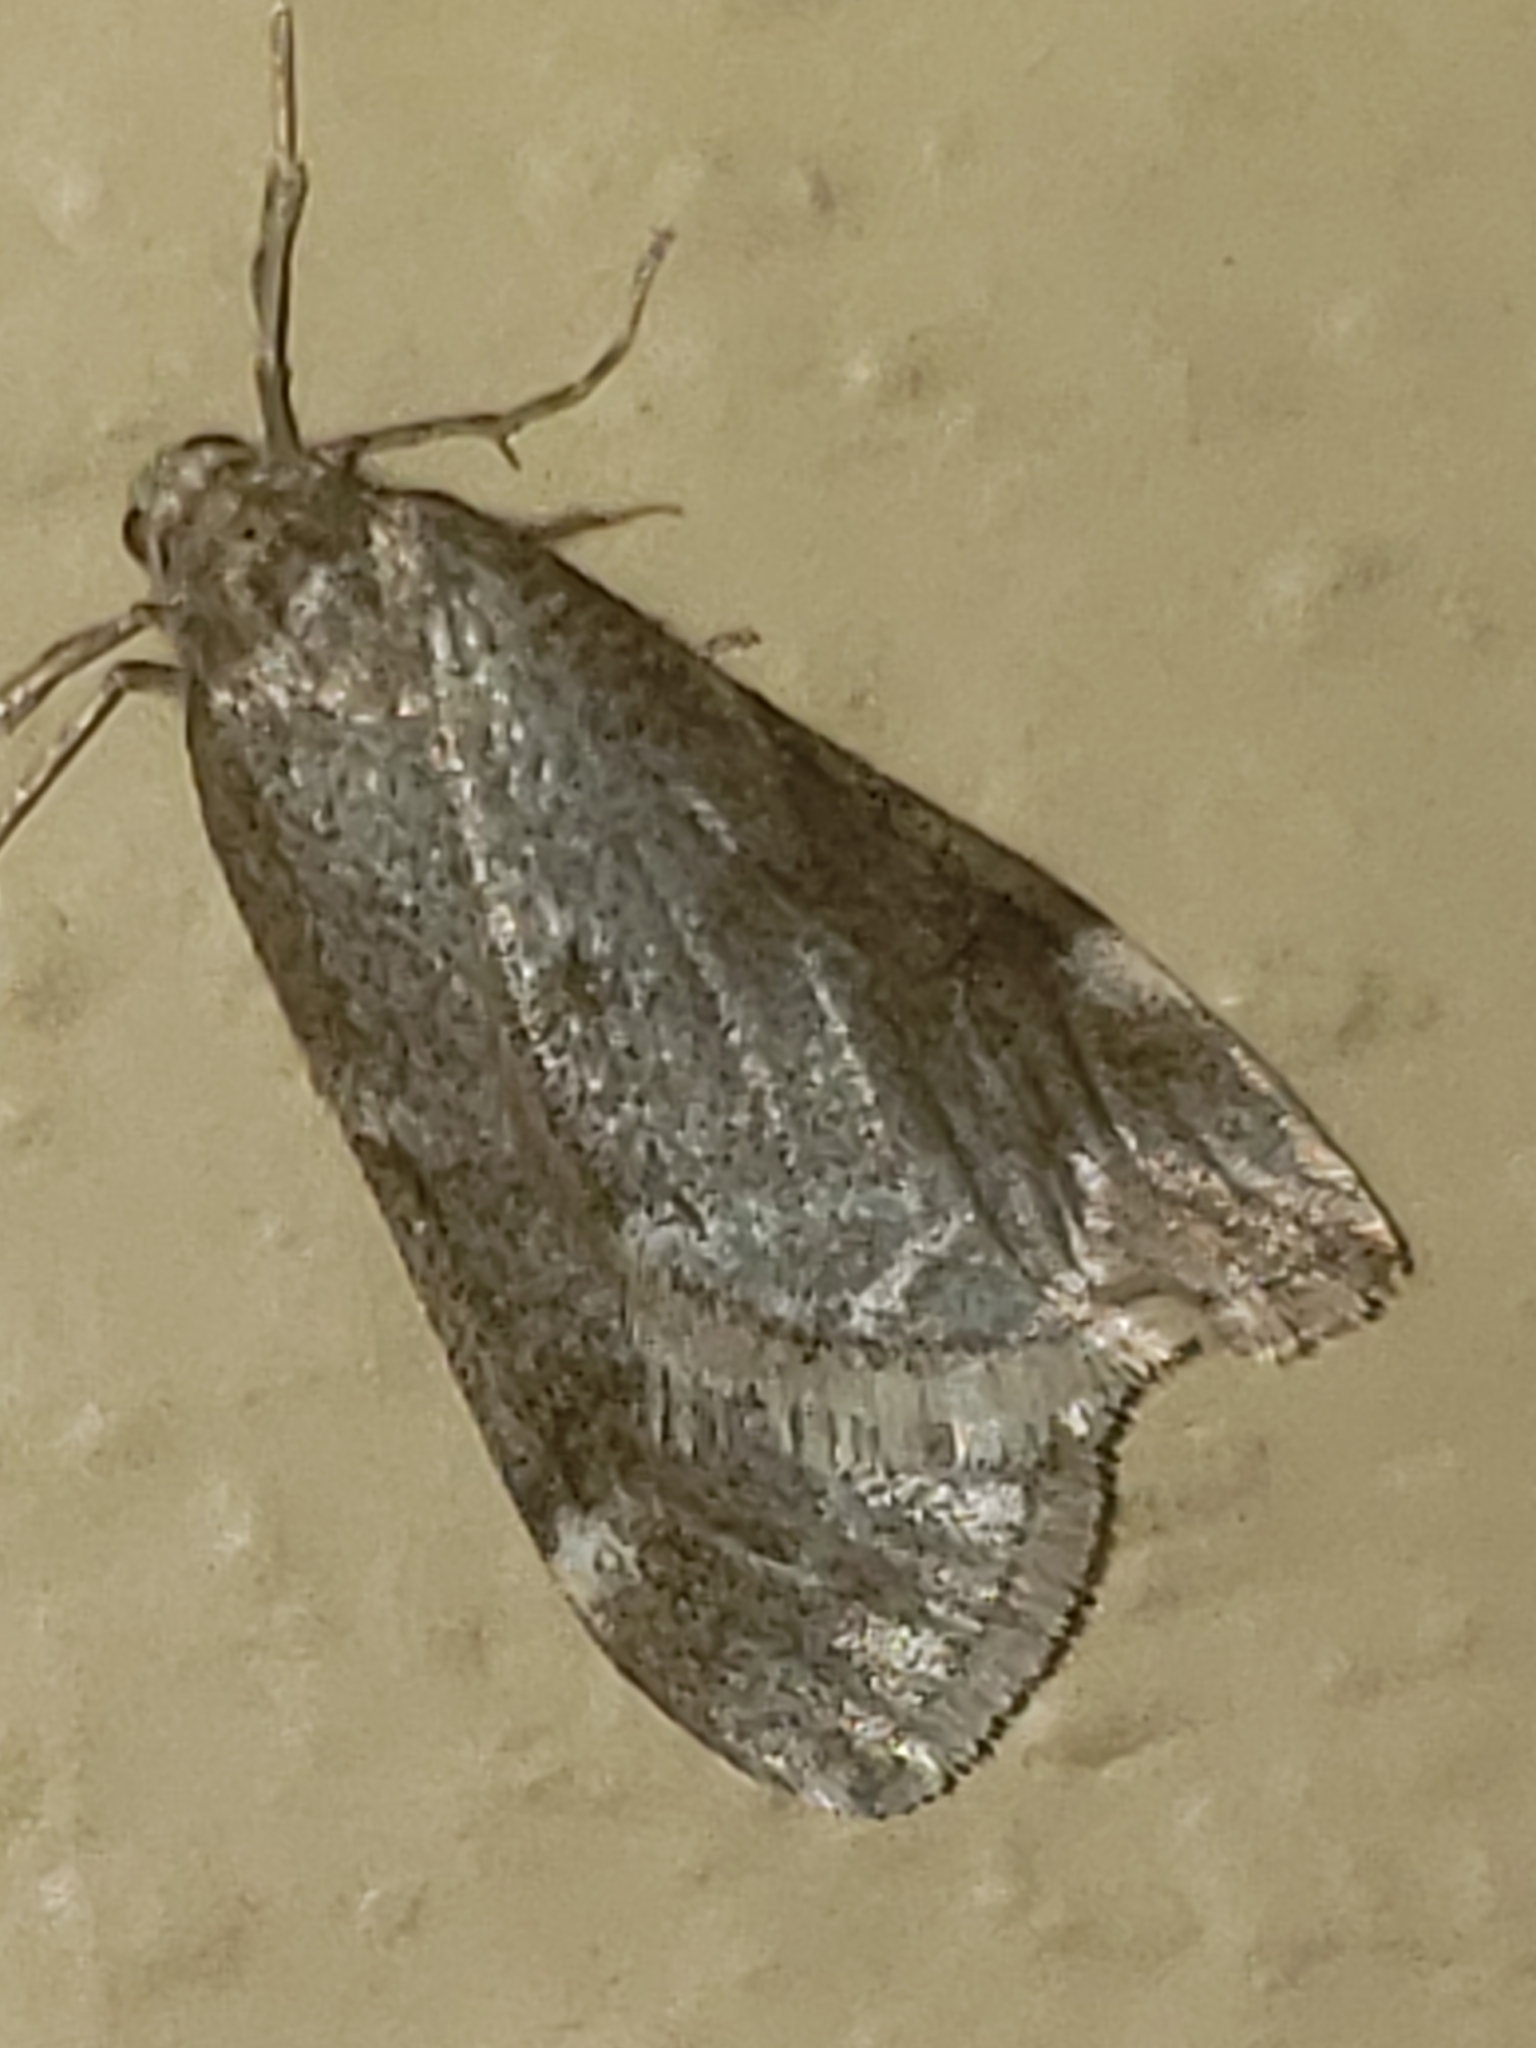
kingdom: Animalia
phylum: Arthropoda
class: Insecta
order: Lepidoptera
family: Geometridae
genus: Alsophila
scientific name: Alsophila pometaria
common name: Fall cankerworm
